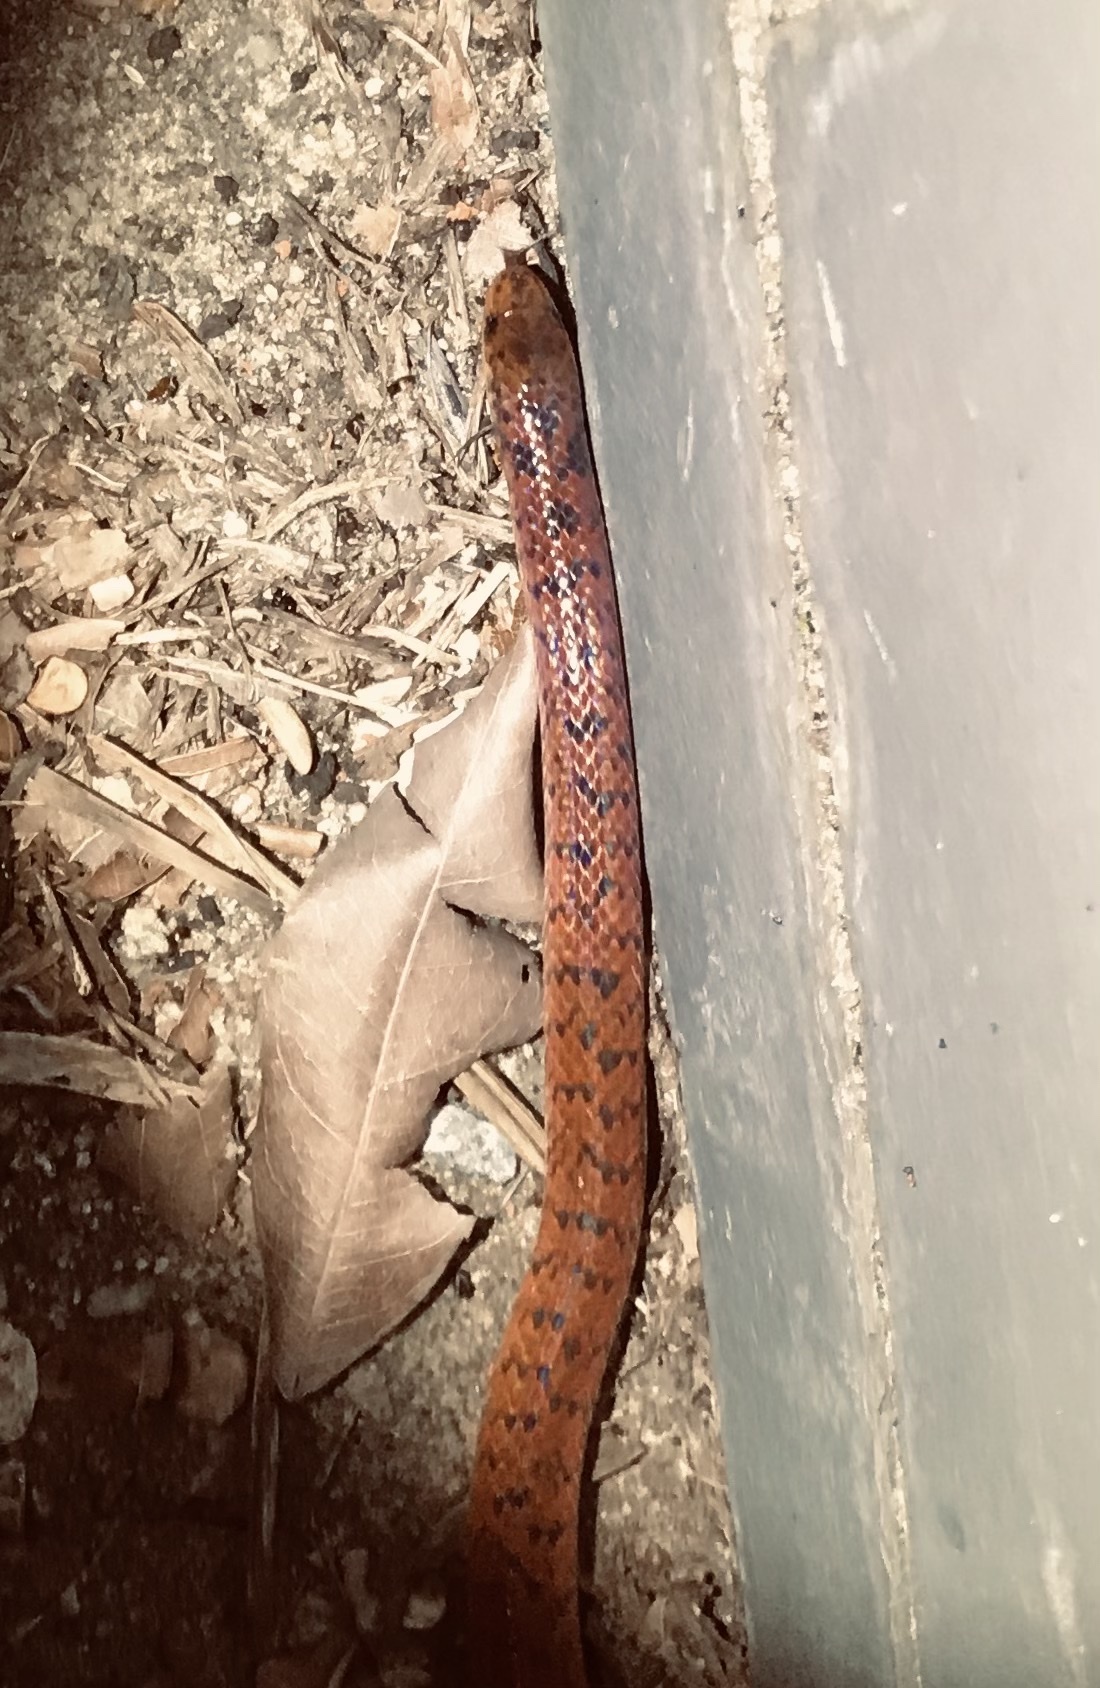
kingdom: Animalia
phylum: Chordata
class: Squamata
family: Colubridae
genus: Atractus
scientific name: Atractus maculatus
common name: Spotted ground snake
